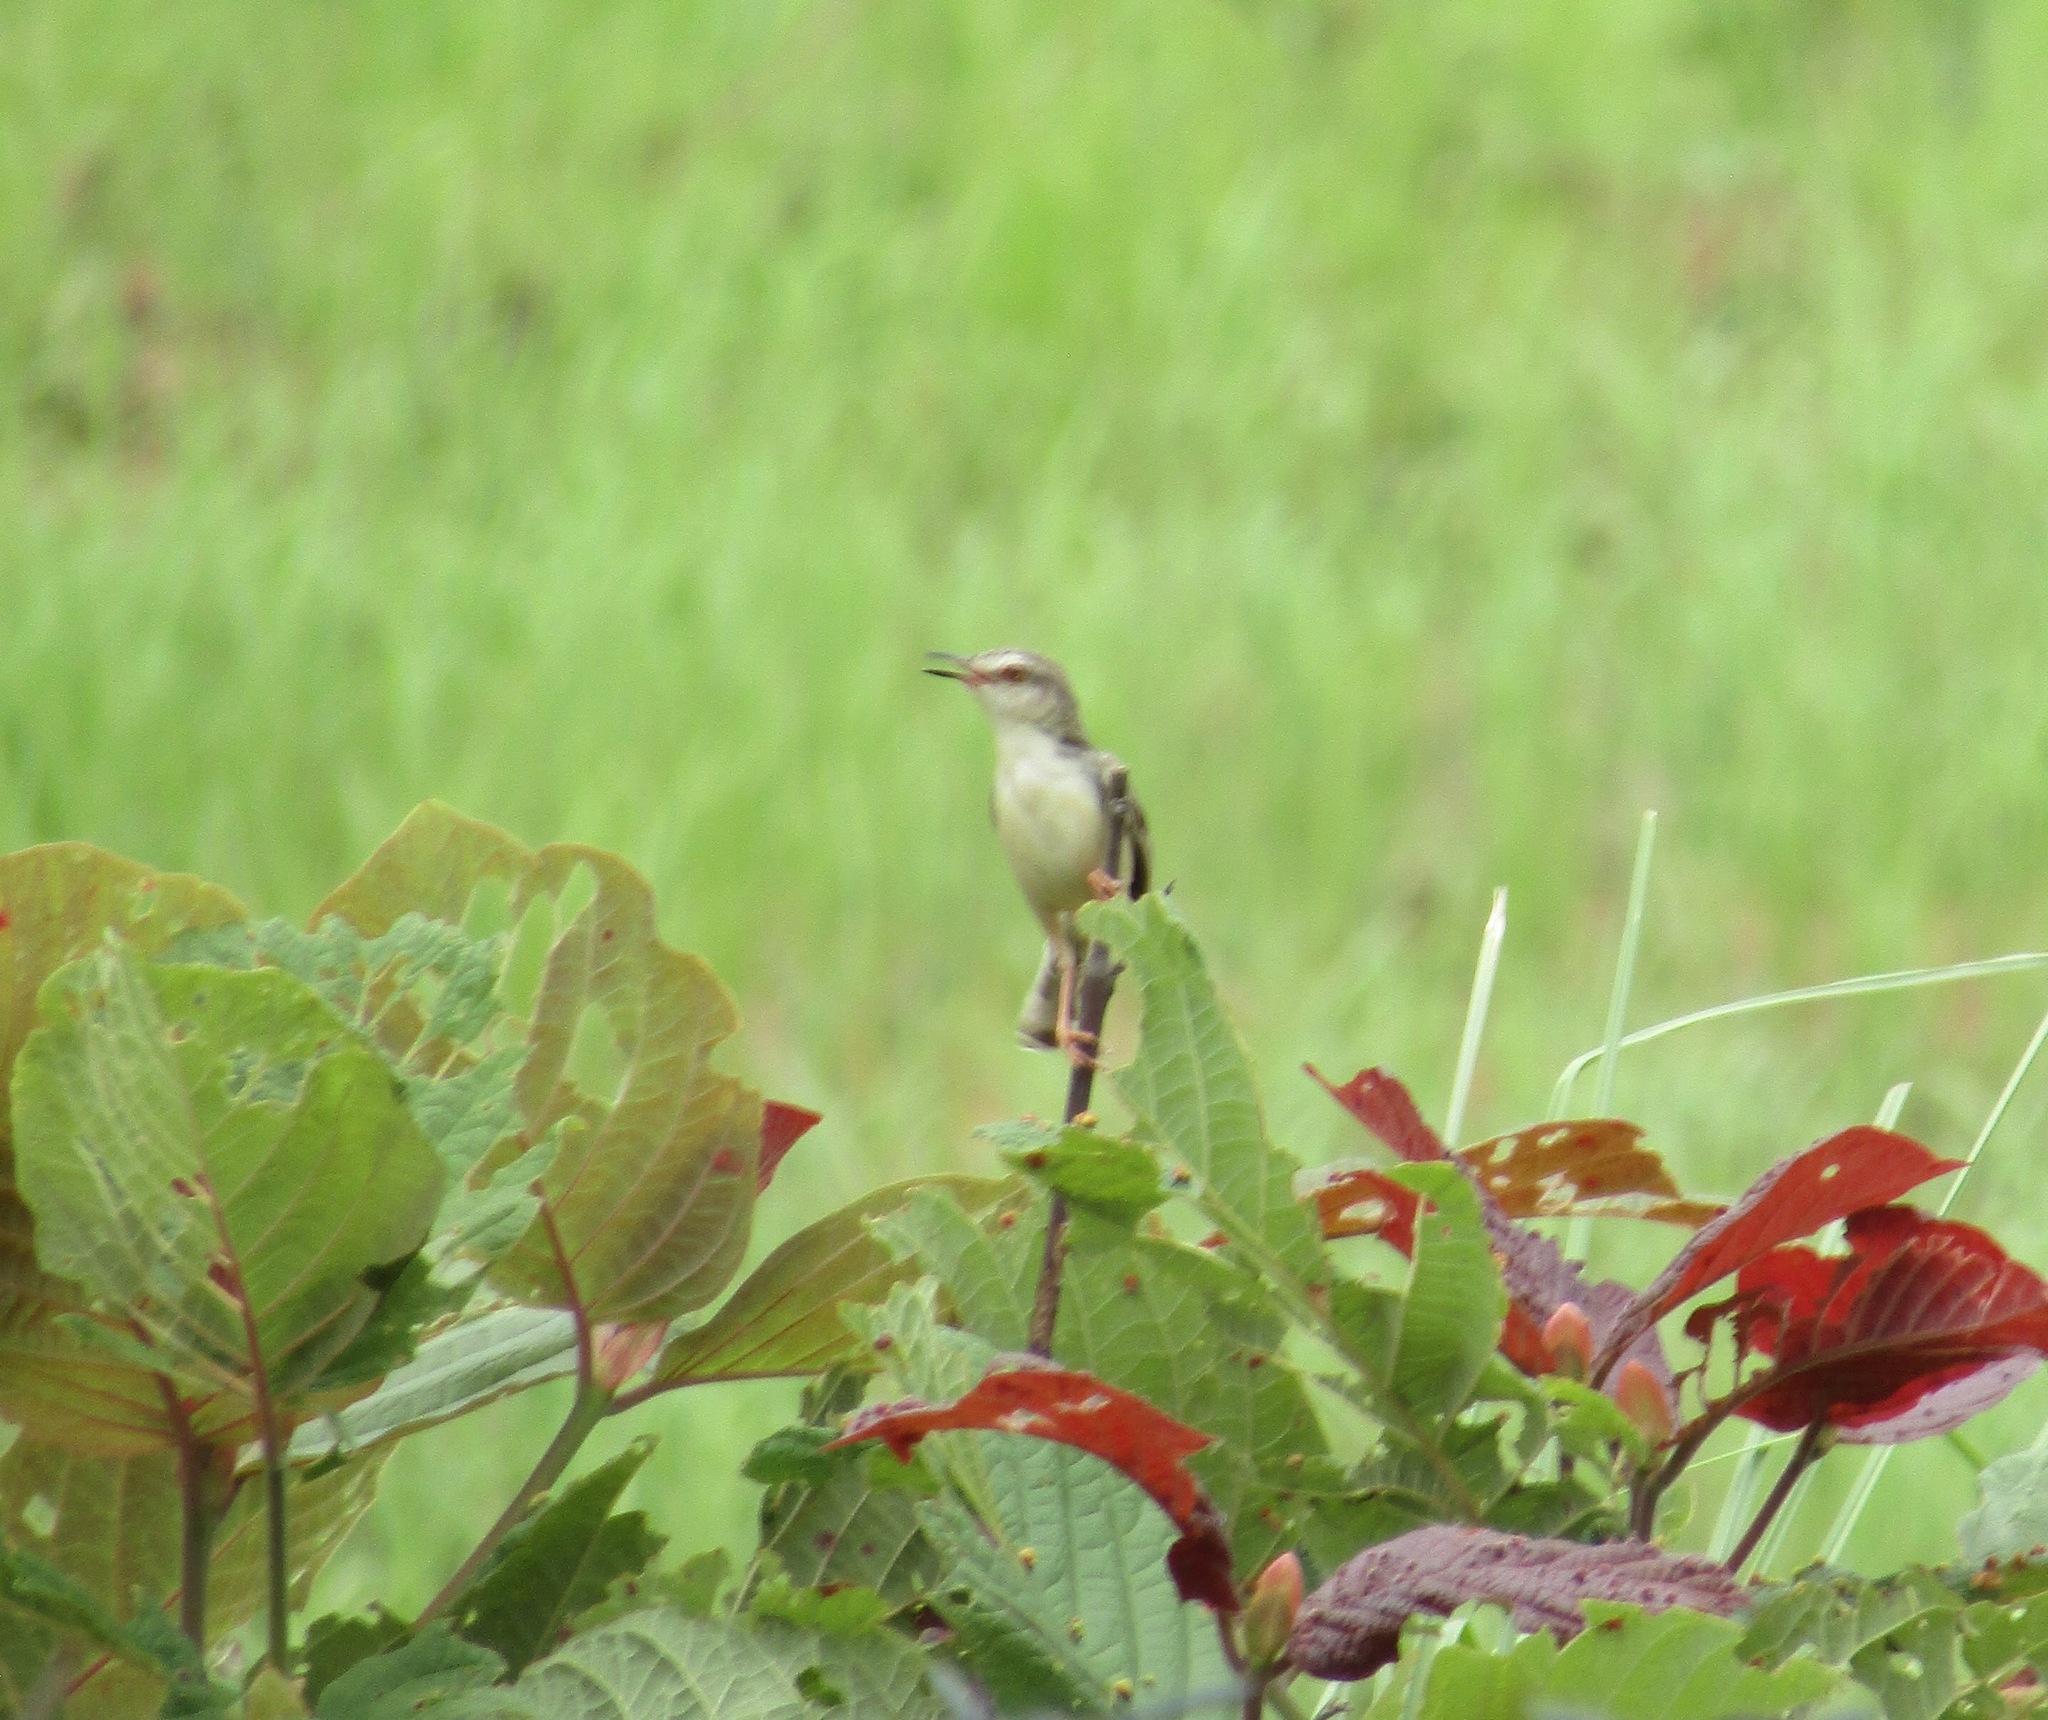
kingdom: Animalia
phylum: Chordata
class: Aves
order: Passeriformes
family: Cisticolidae
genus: Prinia
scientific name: Prinia inornata
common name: Plain prinia
